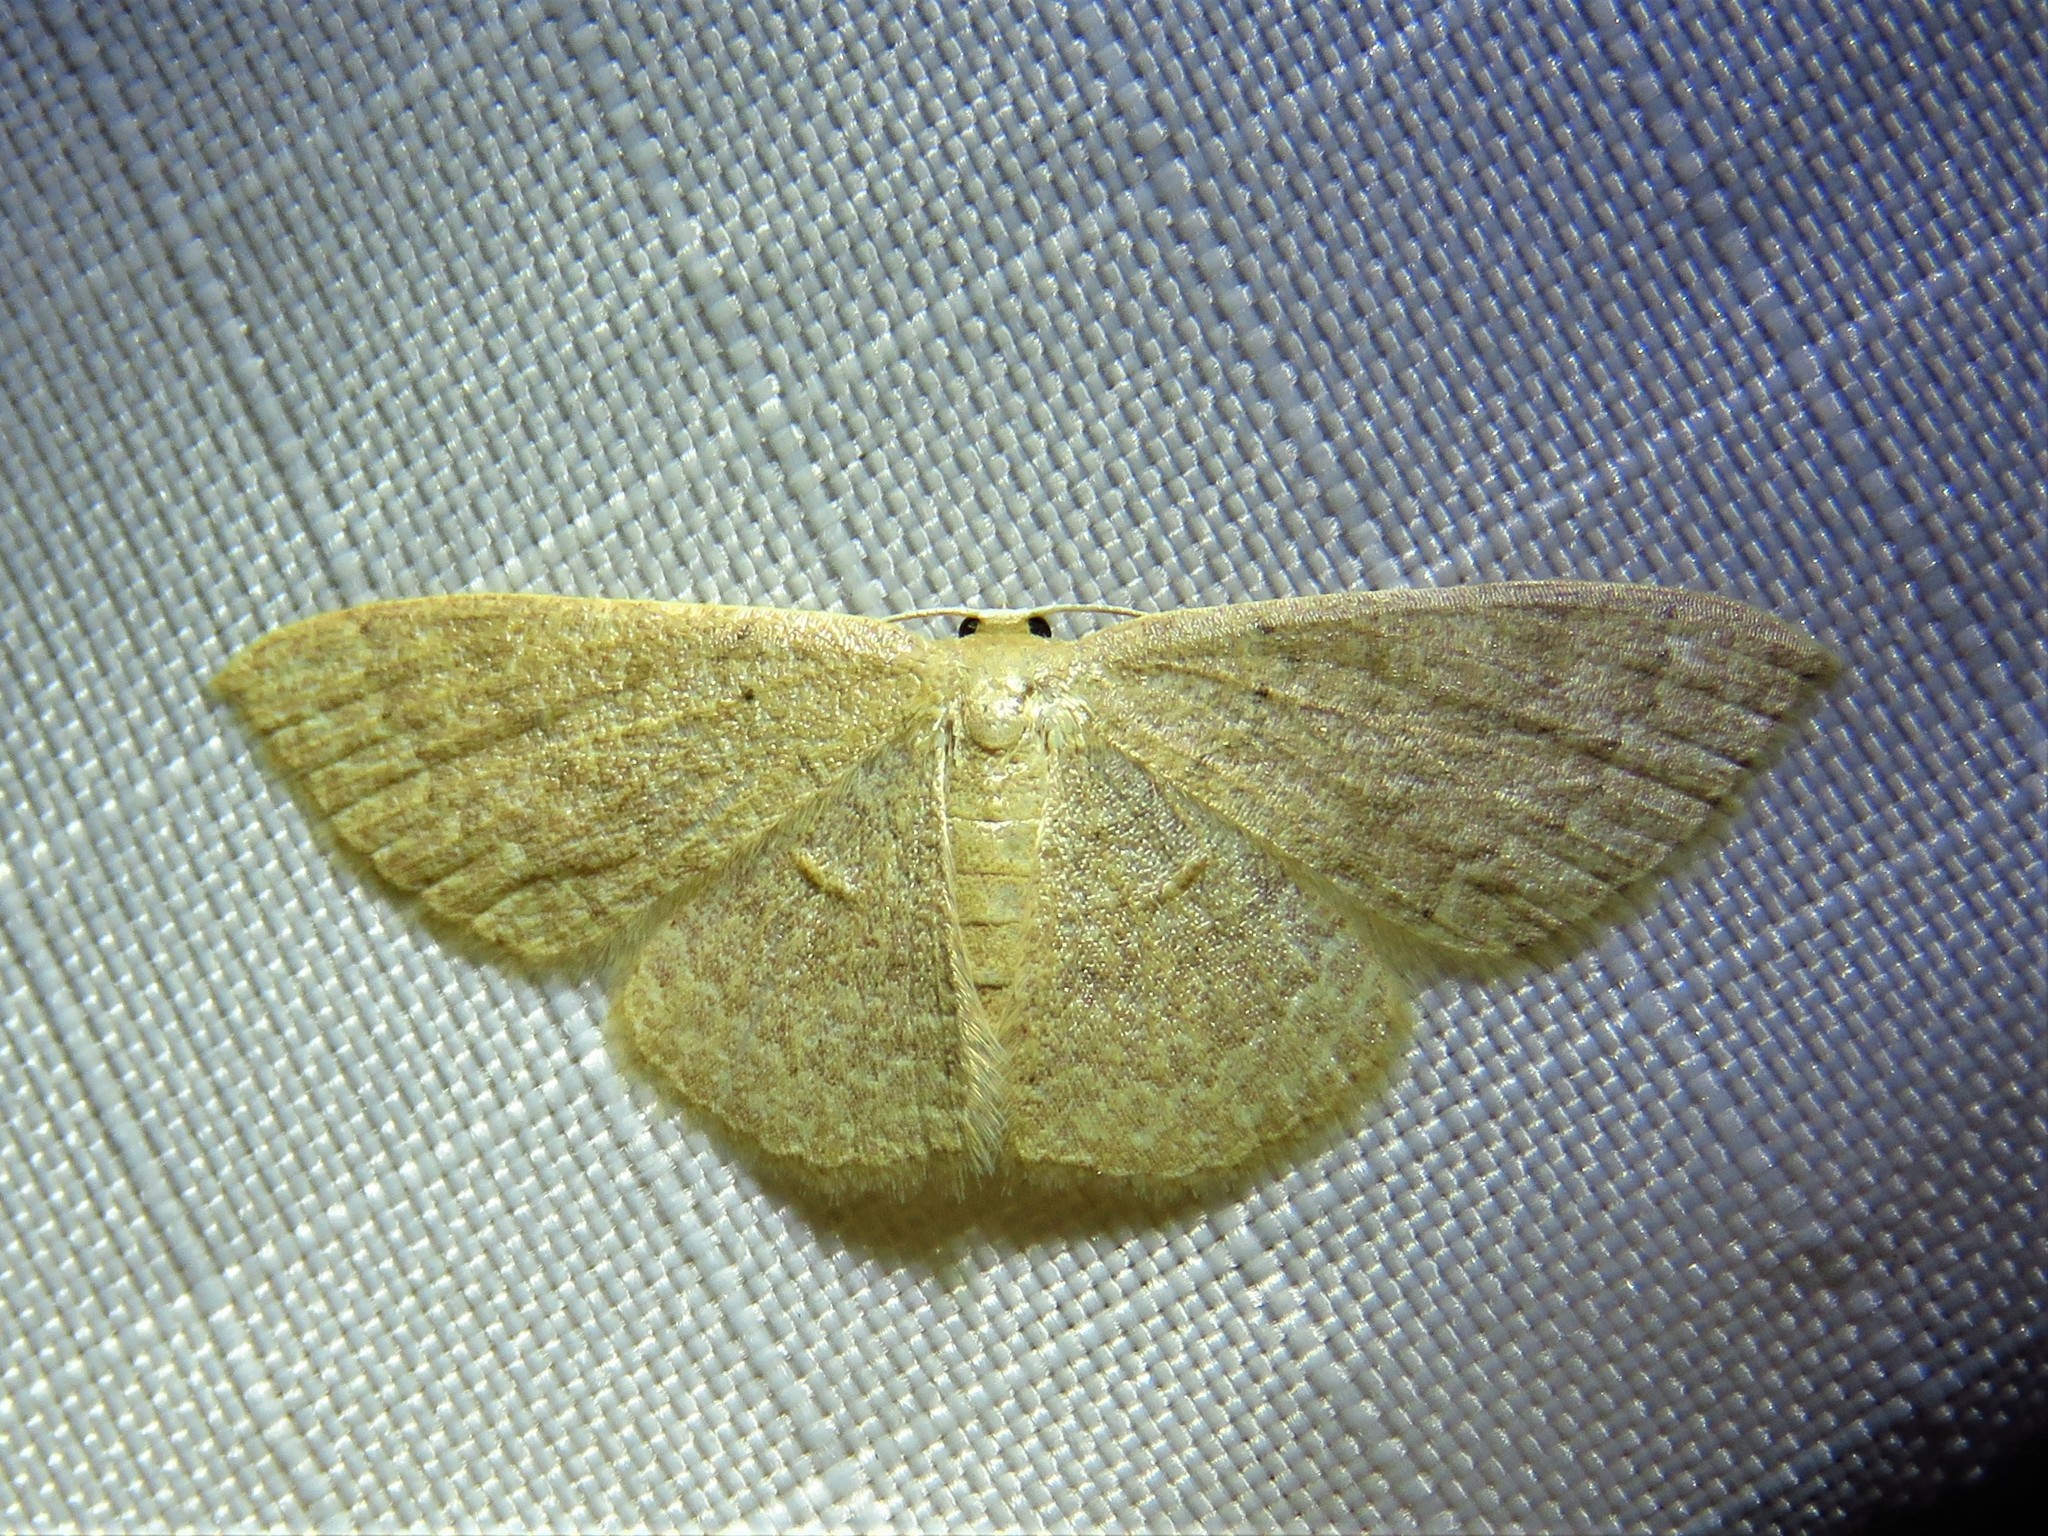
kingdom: Animalia
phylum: Arthropoda
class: Insecta
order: Lepidoptera
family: Geometridae
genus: Pleuroprucha
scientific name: Pleuroprucha insulsaria
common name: Common tan wave
